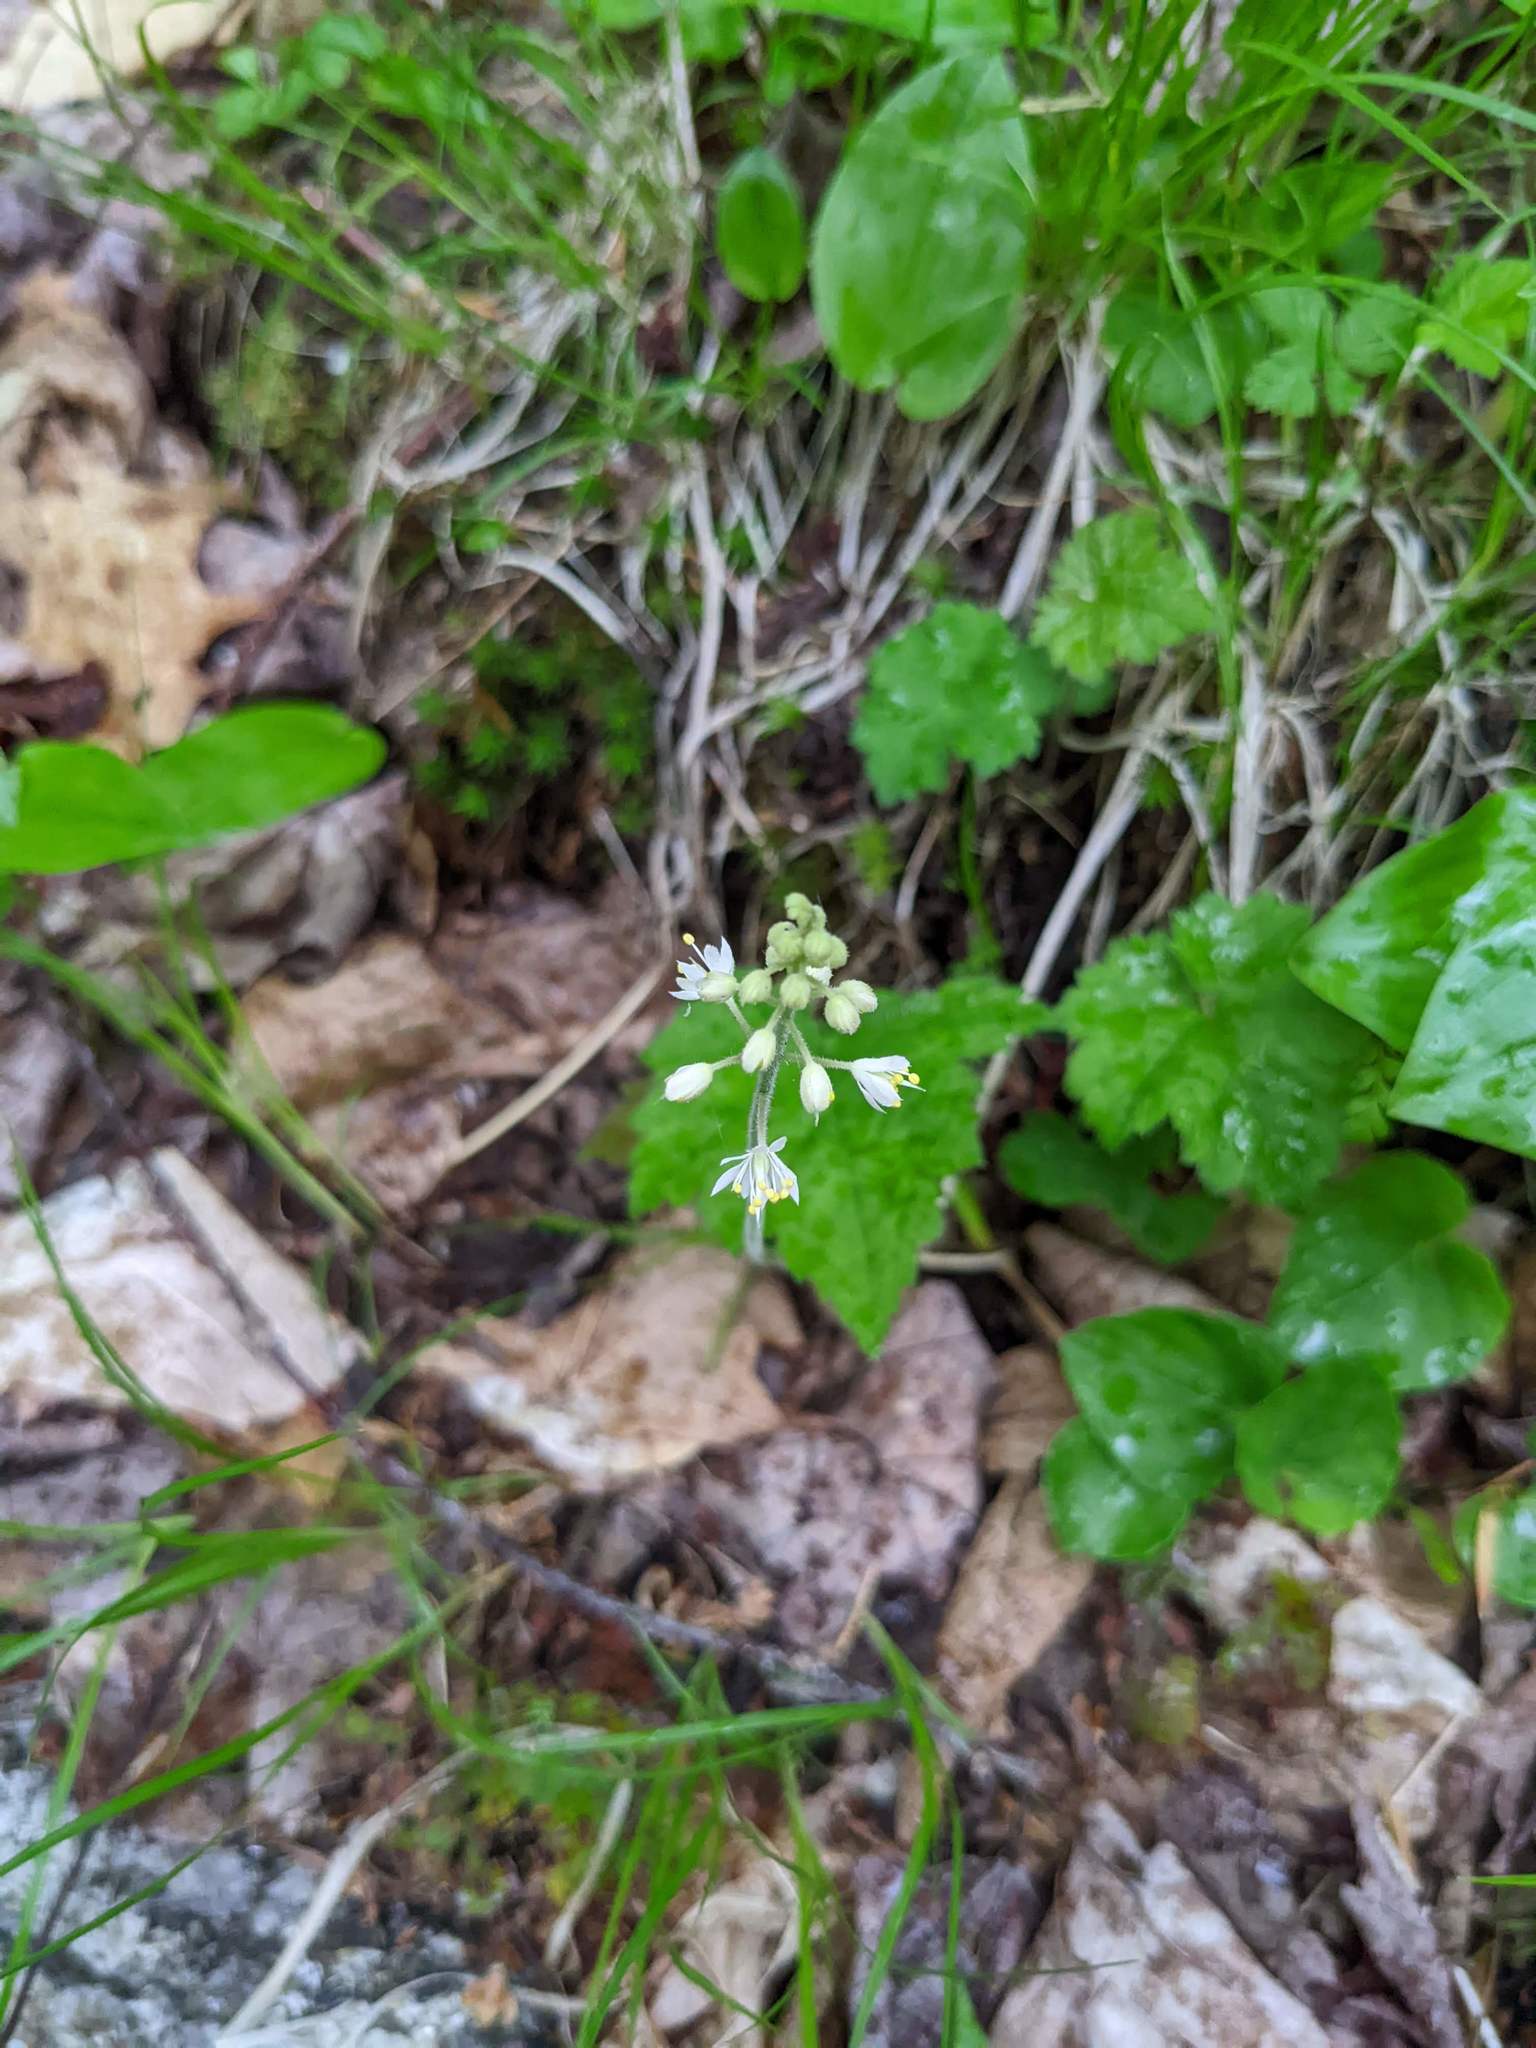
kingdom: Plantae
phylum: Tracheophyta
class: Magnoliopsida
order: Saxifragales
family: Saxifragaceae
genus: Tiarella
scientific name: Tiarella stolonifera
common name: Stoloniferous foamflower
